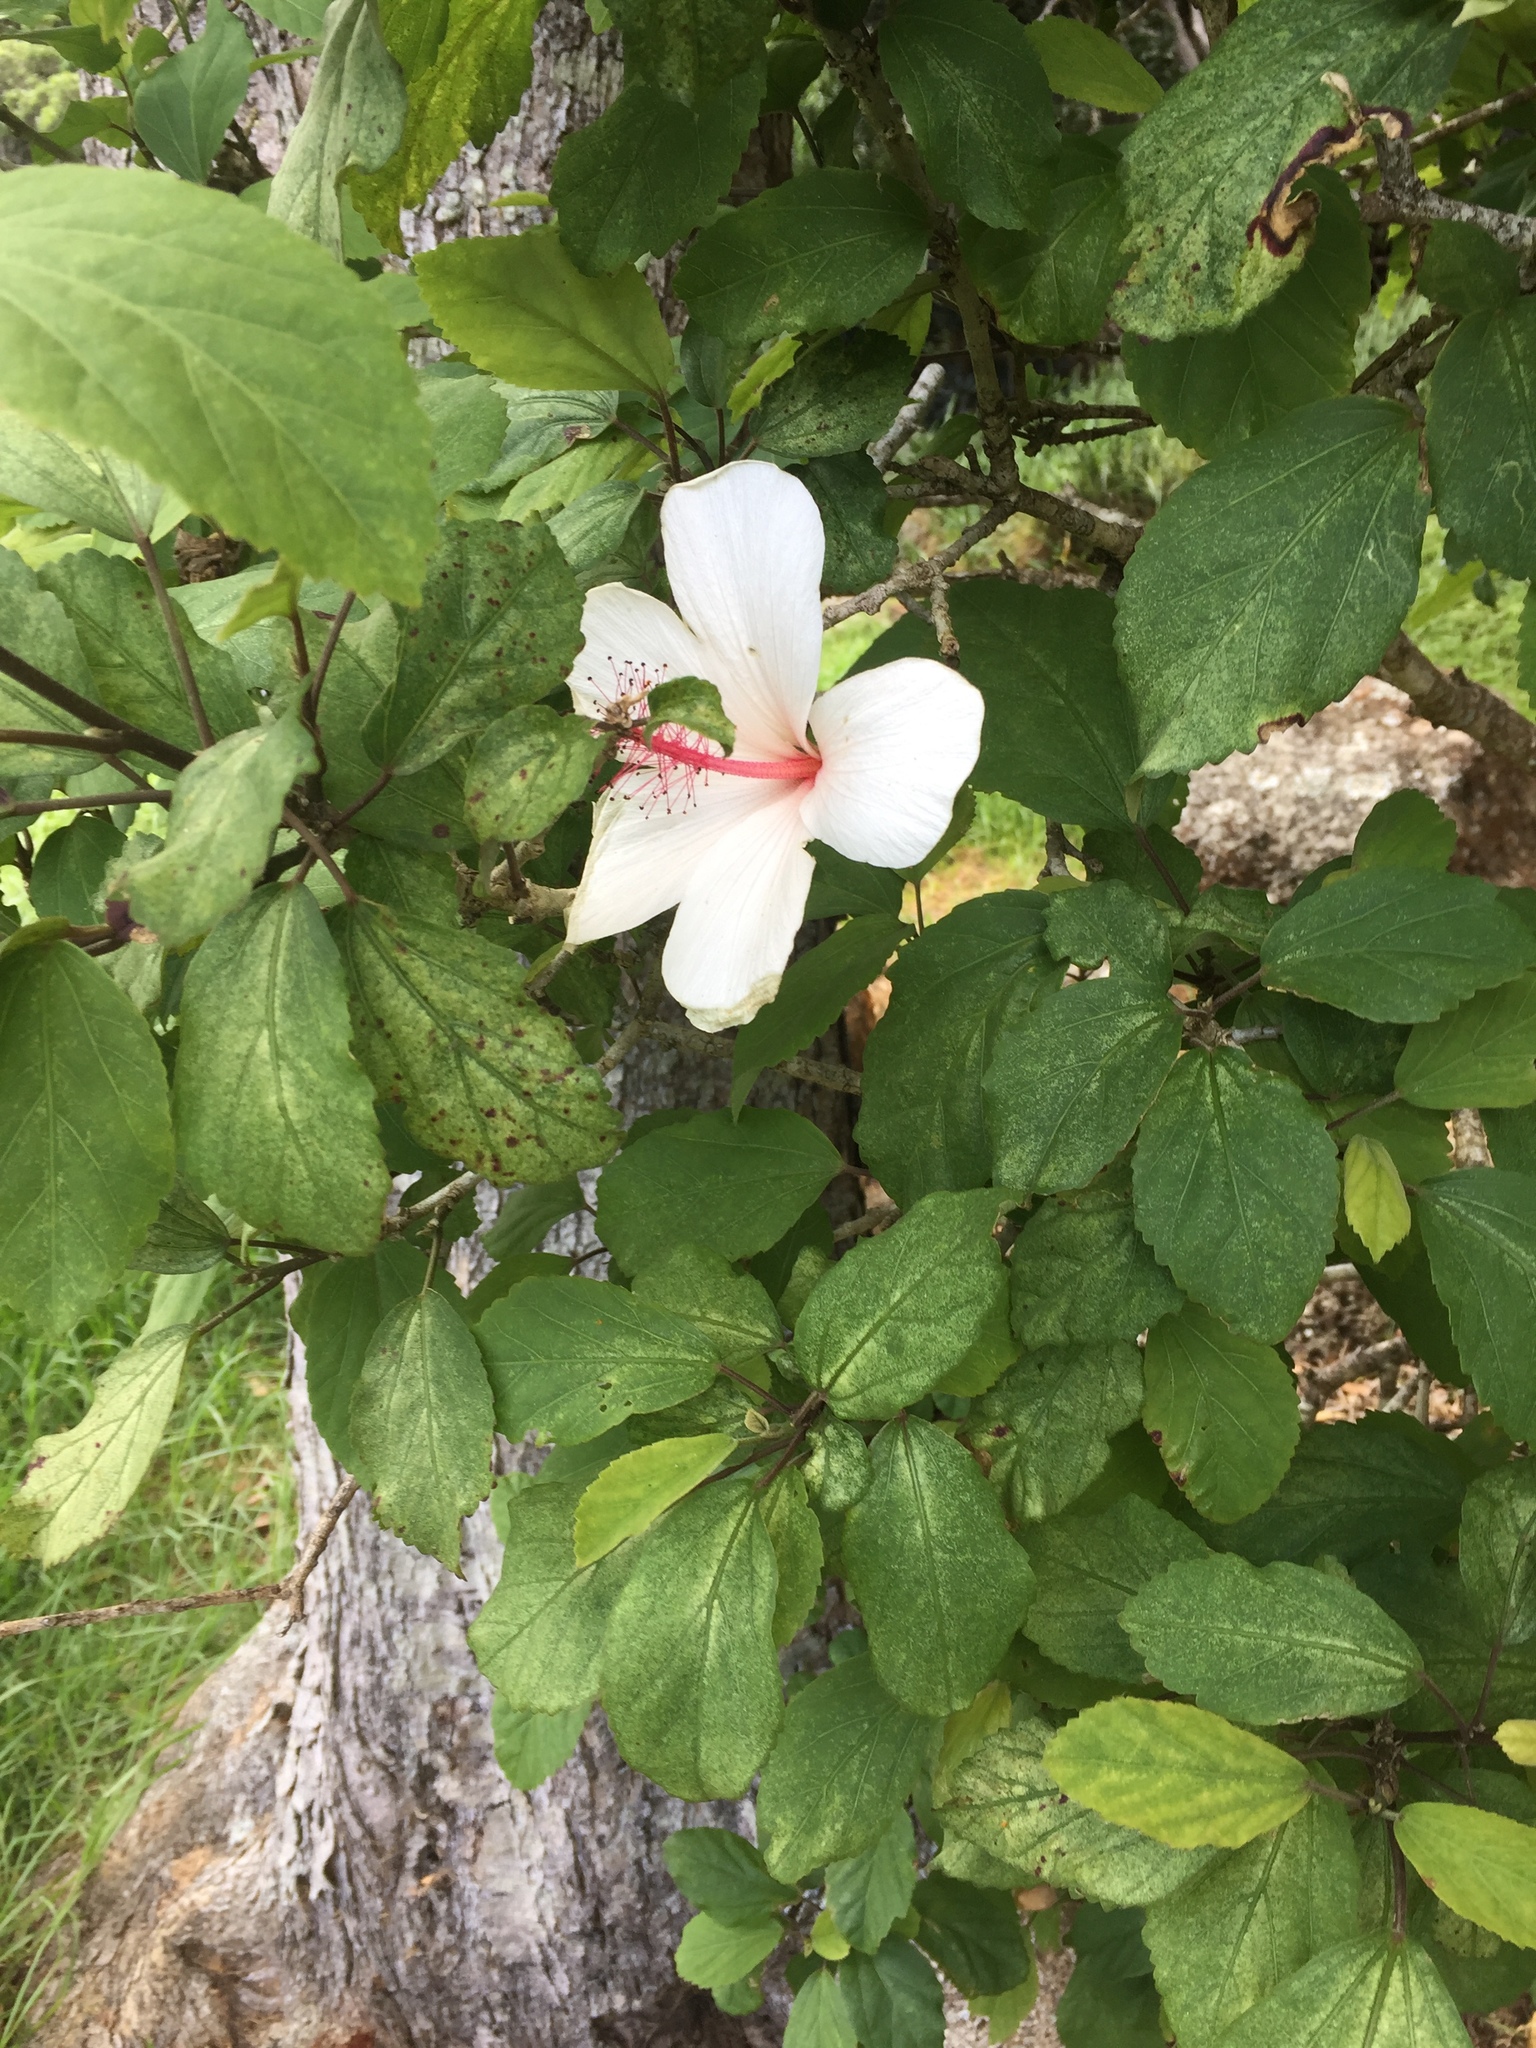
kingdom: Plantae
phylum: Tracheophyta
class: Magnoliopsida
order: Malvales
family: Malvaceae
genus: Hibiscus
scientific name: Hibiscus waimeae
